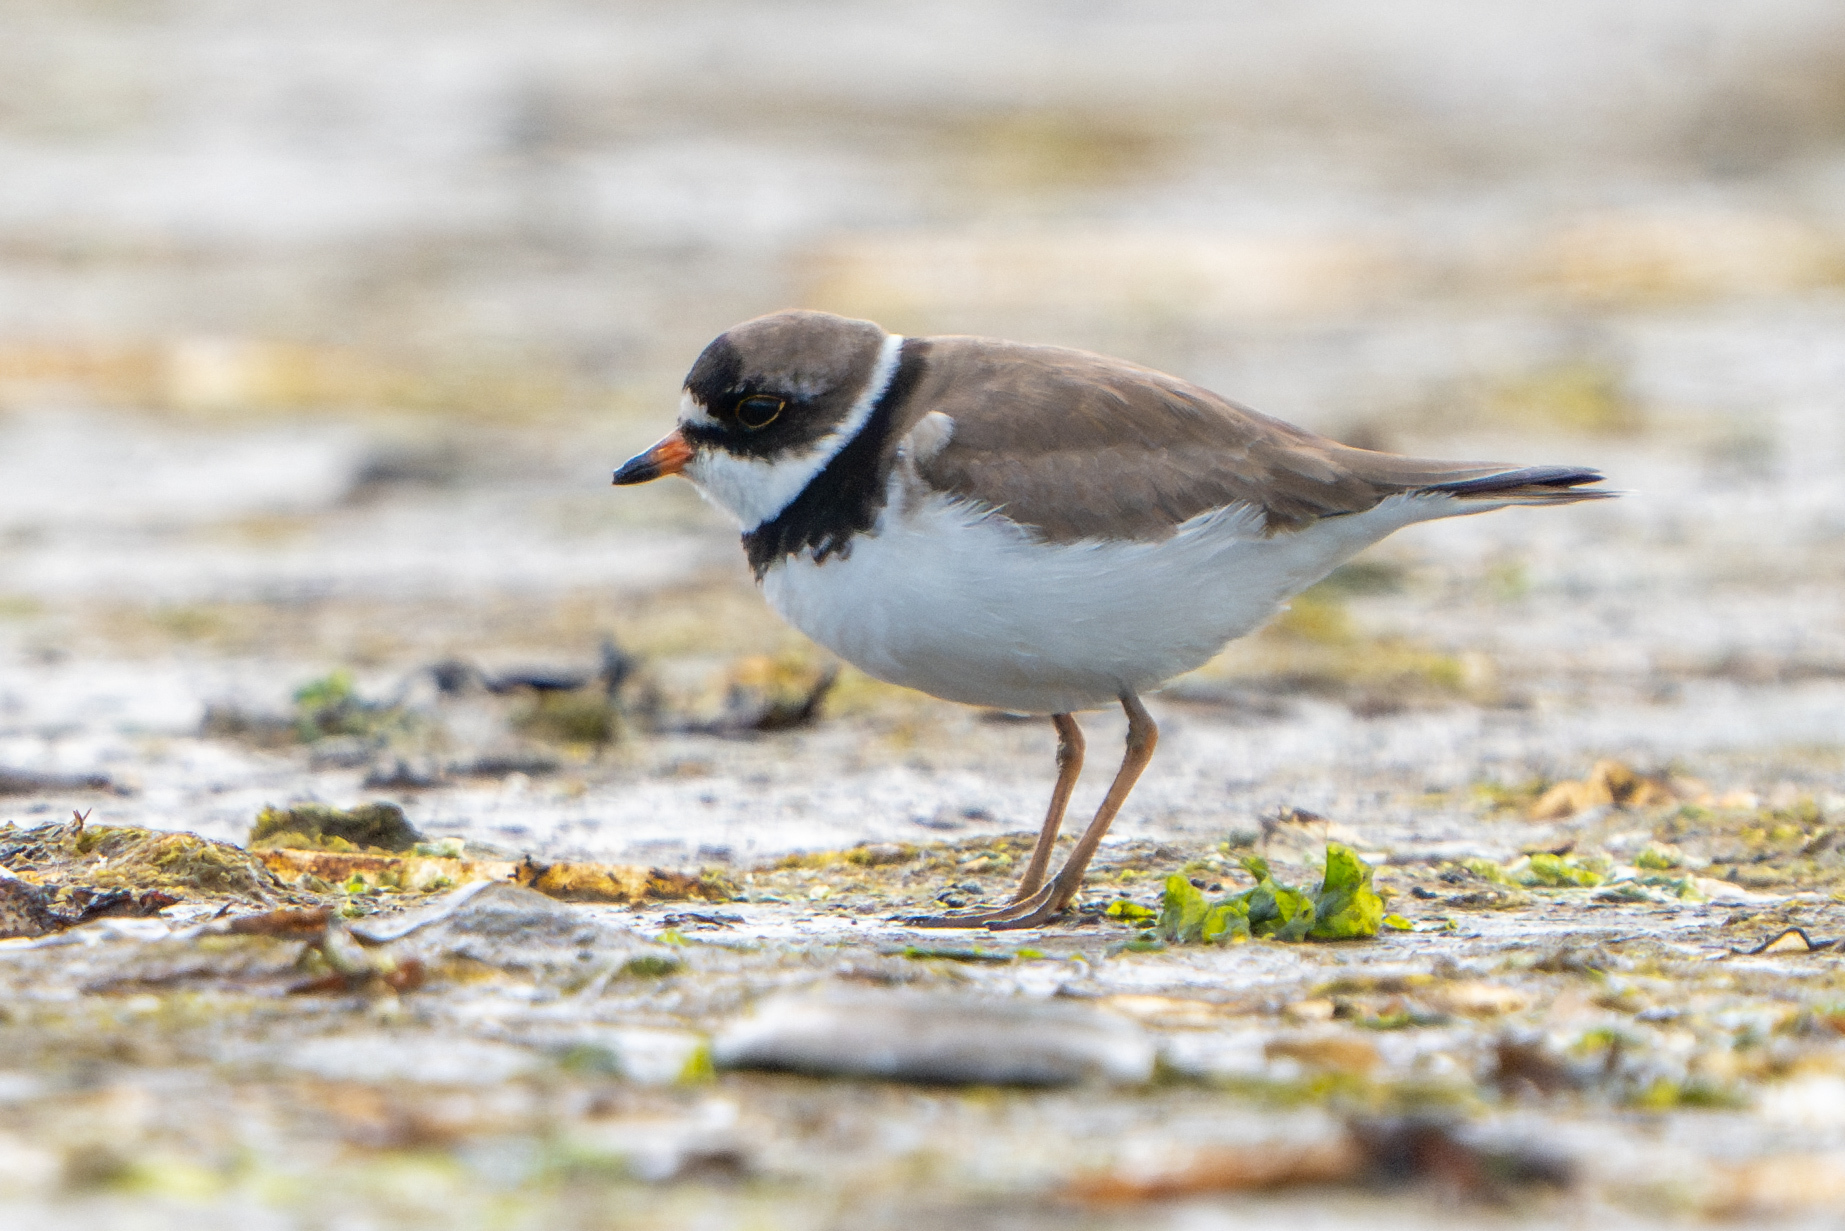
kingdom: Animalia
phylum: Chordata
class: Aves
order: Charadriiformes
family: Charadriidae
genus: Charadrius
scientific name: Charadrius semipalmatus
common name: Semipalmated plover
